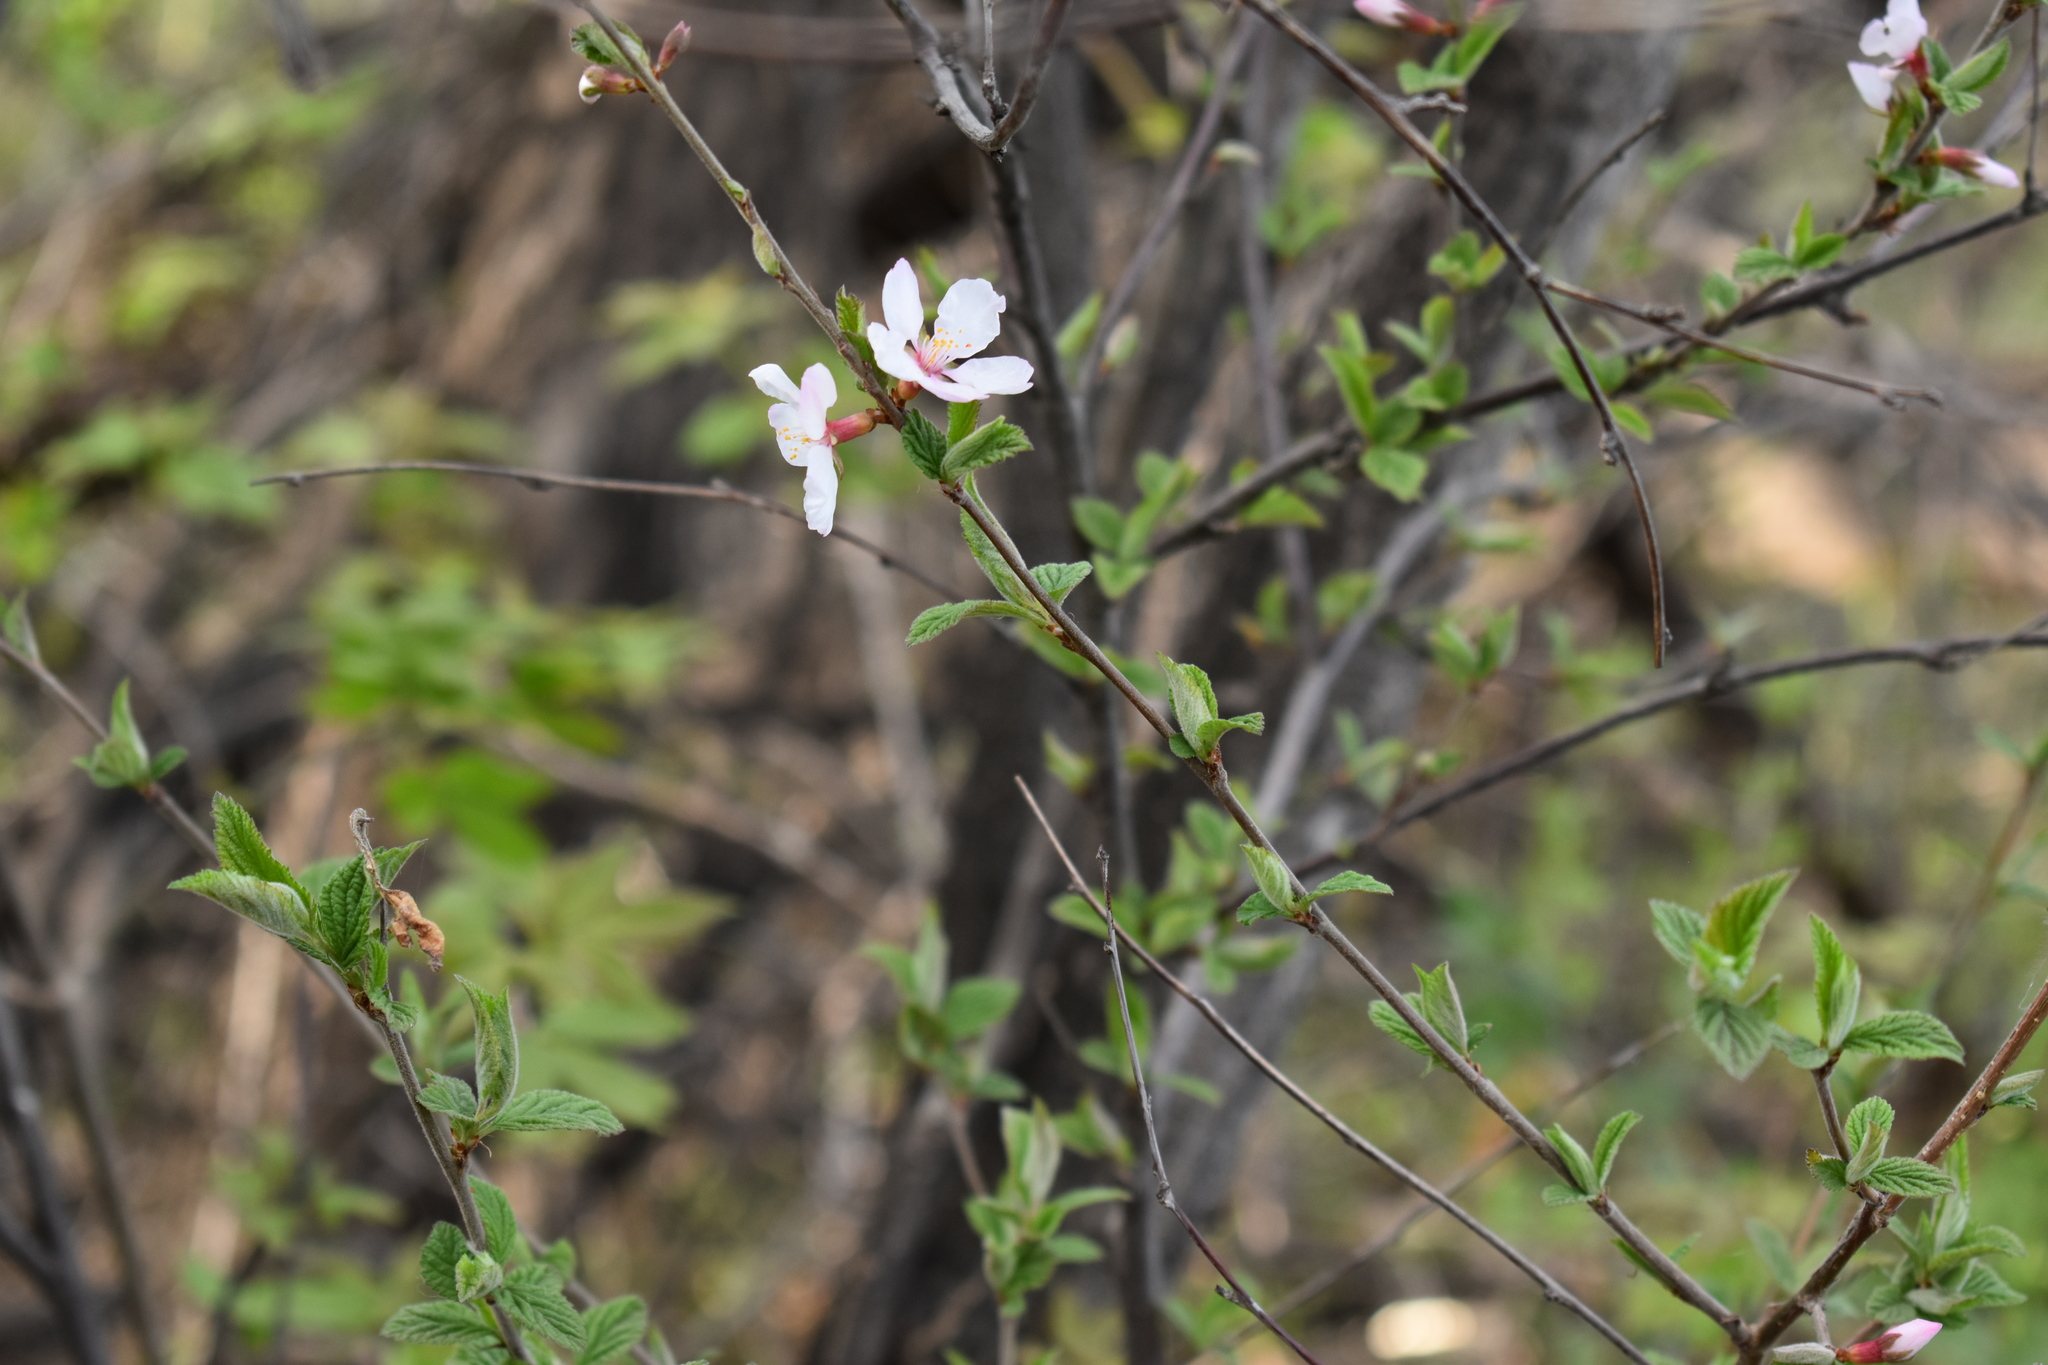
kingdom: Plantae
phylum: Tracheophyta
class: Magnoliopsida
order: Rosales
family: Rosaceae
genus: Prunus
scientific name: Prunus tomentosa
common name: Nanking cherry
